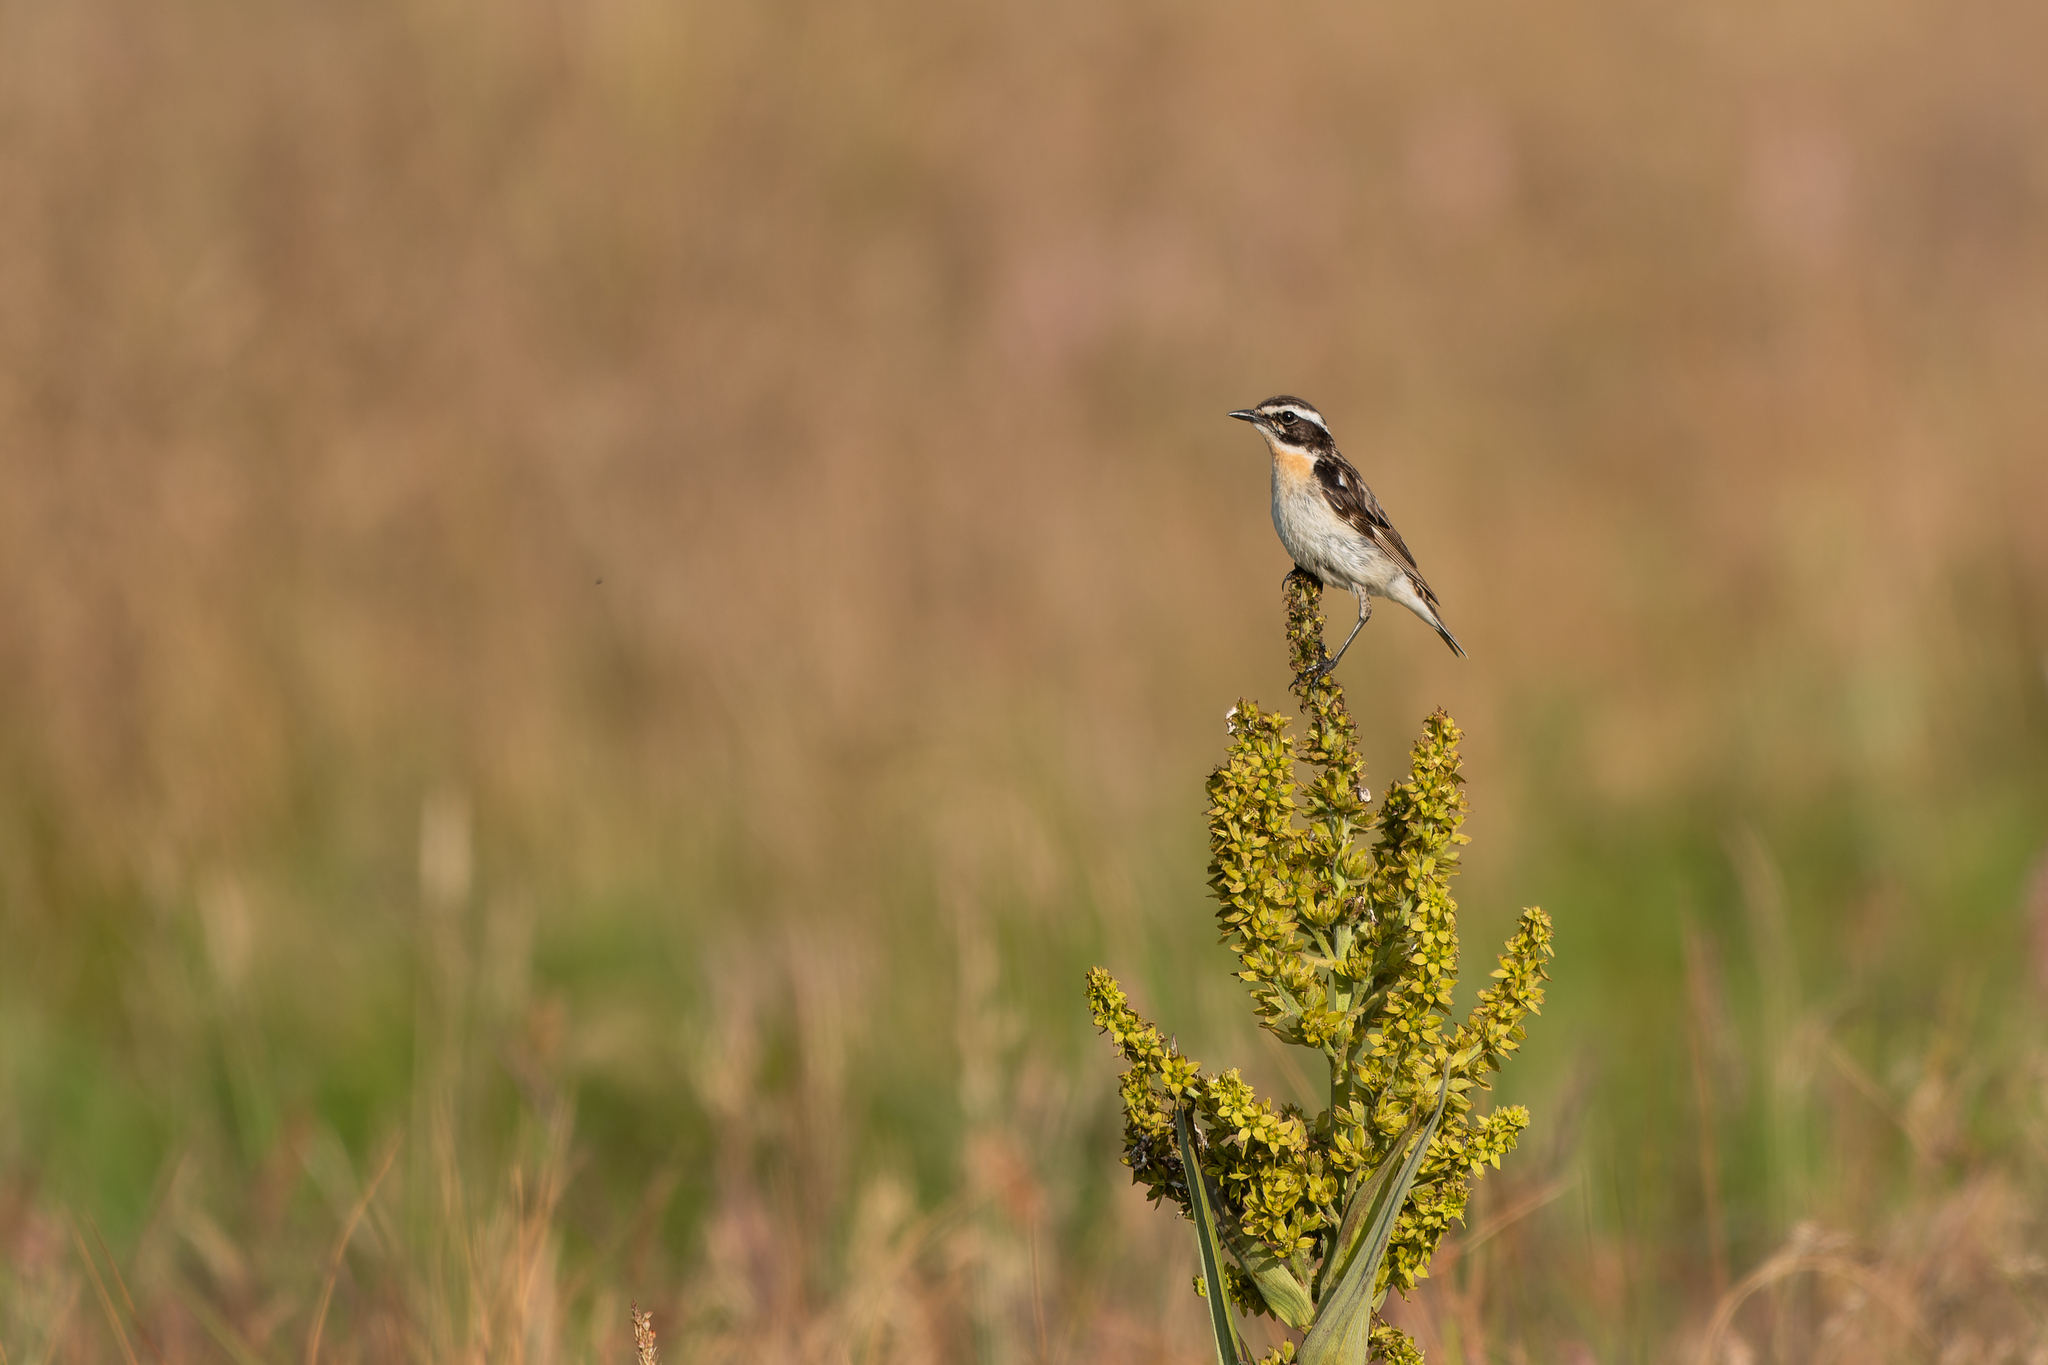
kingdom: Animalia
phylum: Chordata
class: Aves
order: Passeriformes
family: Muscicapidae
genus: Saxicola
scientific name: Saxicola rubetra
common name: Whinchat
